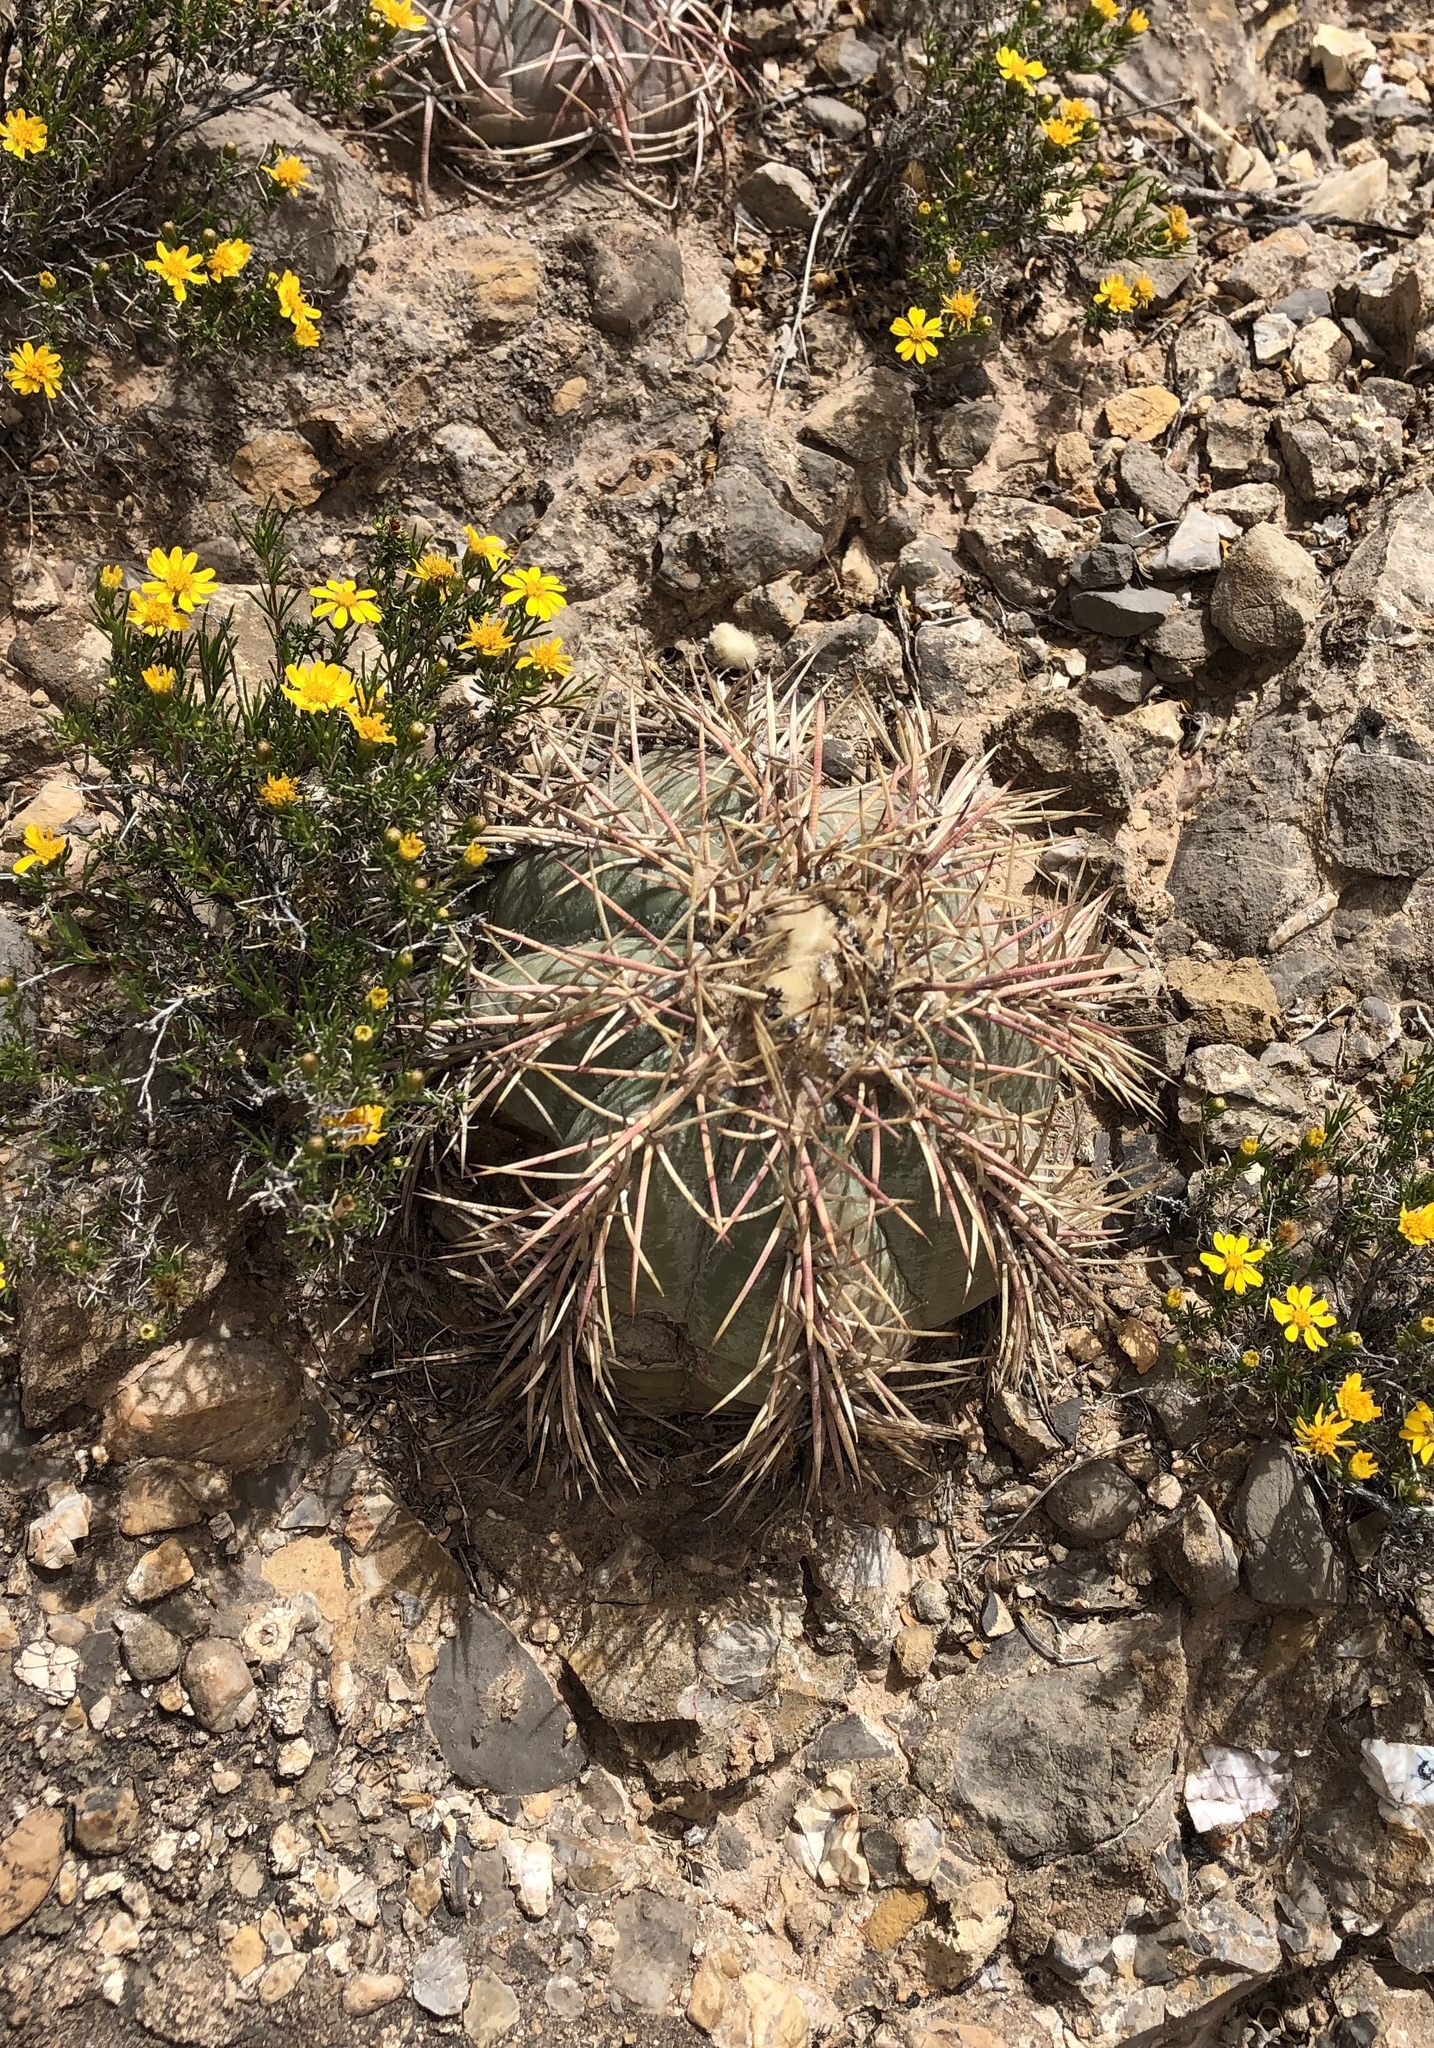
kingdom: Plantae
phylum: Tracheophyta
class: Magnoliopsida
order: Caryophyllales
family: Cactaceae
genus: Echinocactus
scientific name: Echinocactus horizonthalonius
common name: Devilshead
